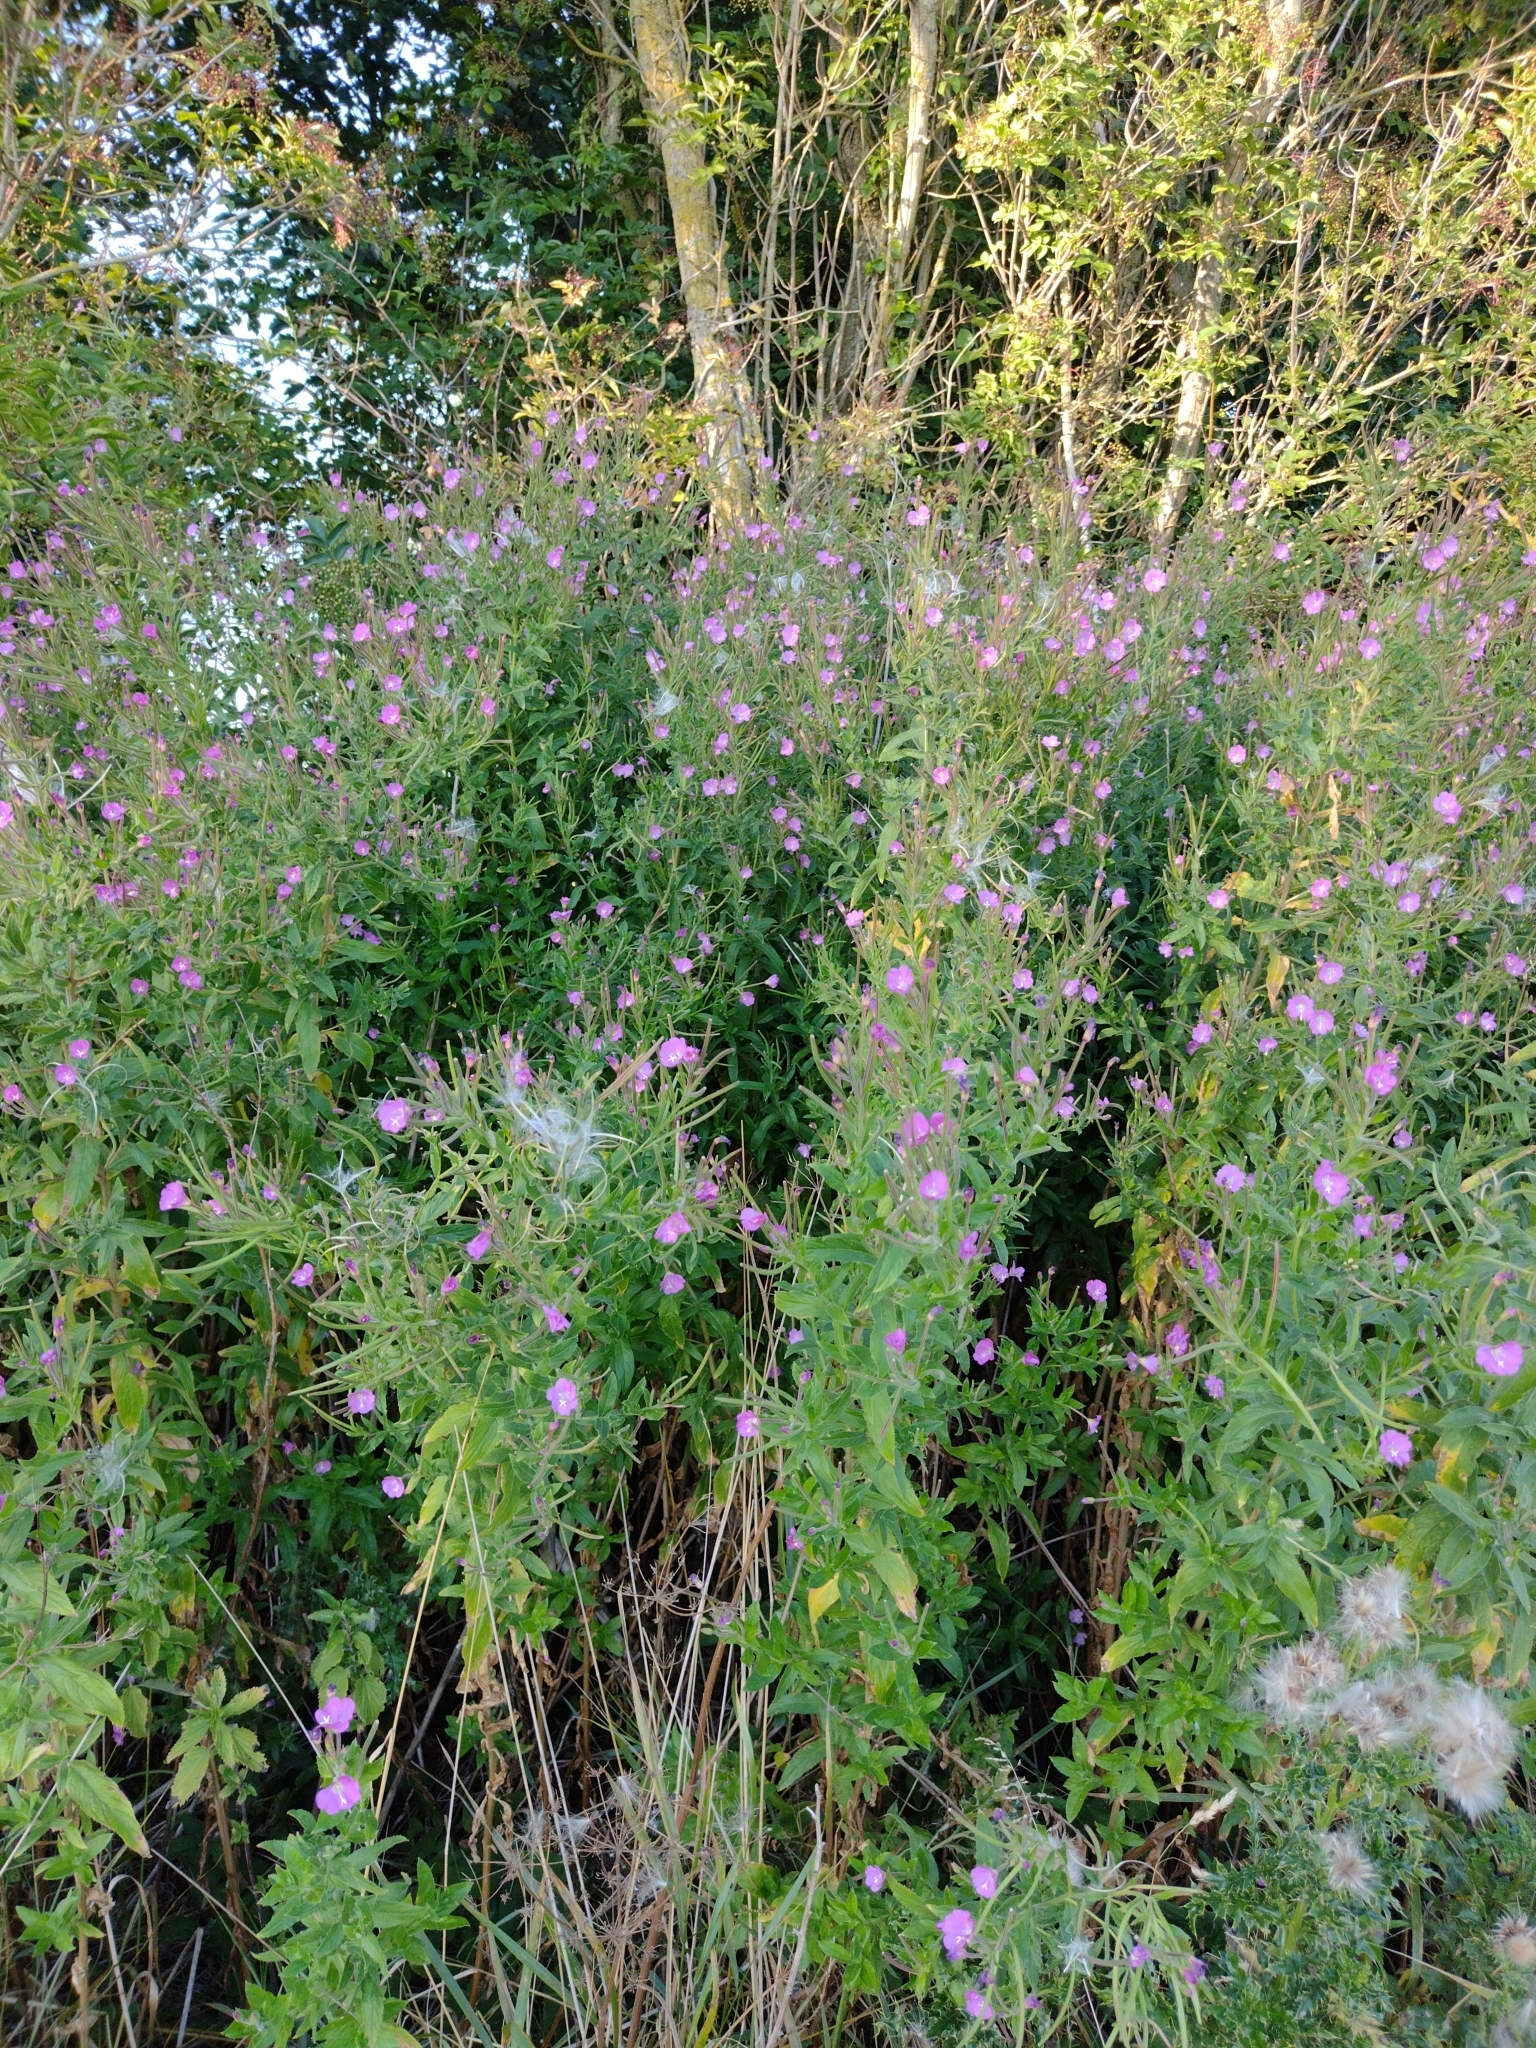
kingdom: Plantae
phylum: Tracheophyta
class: Magnoliopsida
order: Myrtales
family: Onagraceae
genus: Epilobium
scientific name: Epilobium hirsutum
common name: Great willowherb
